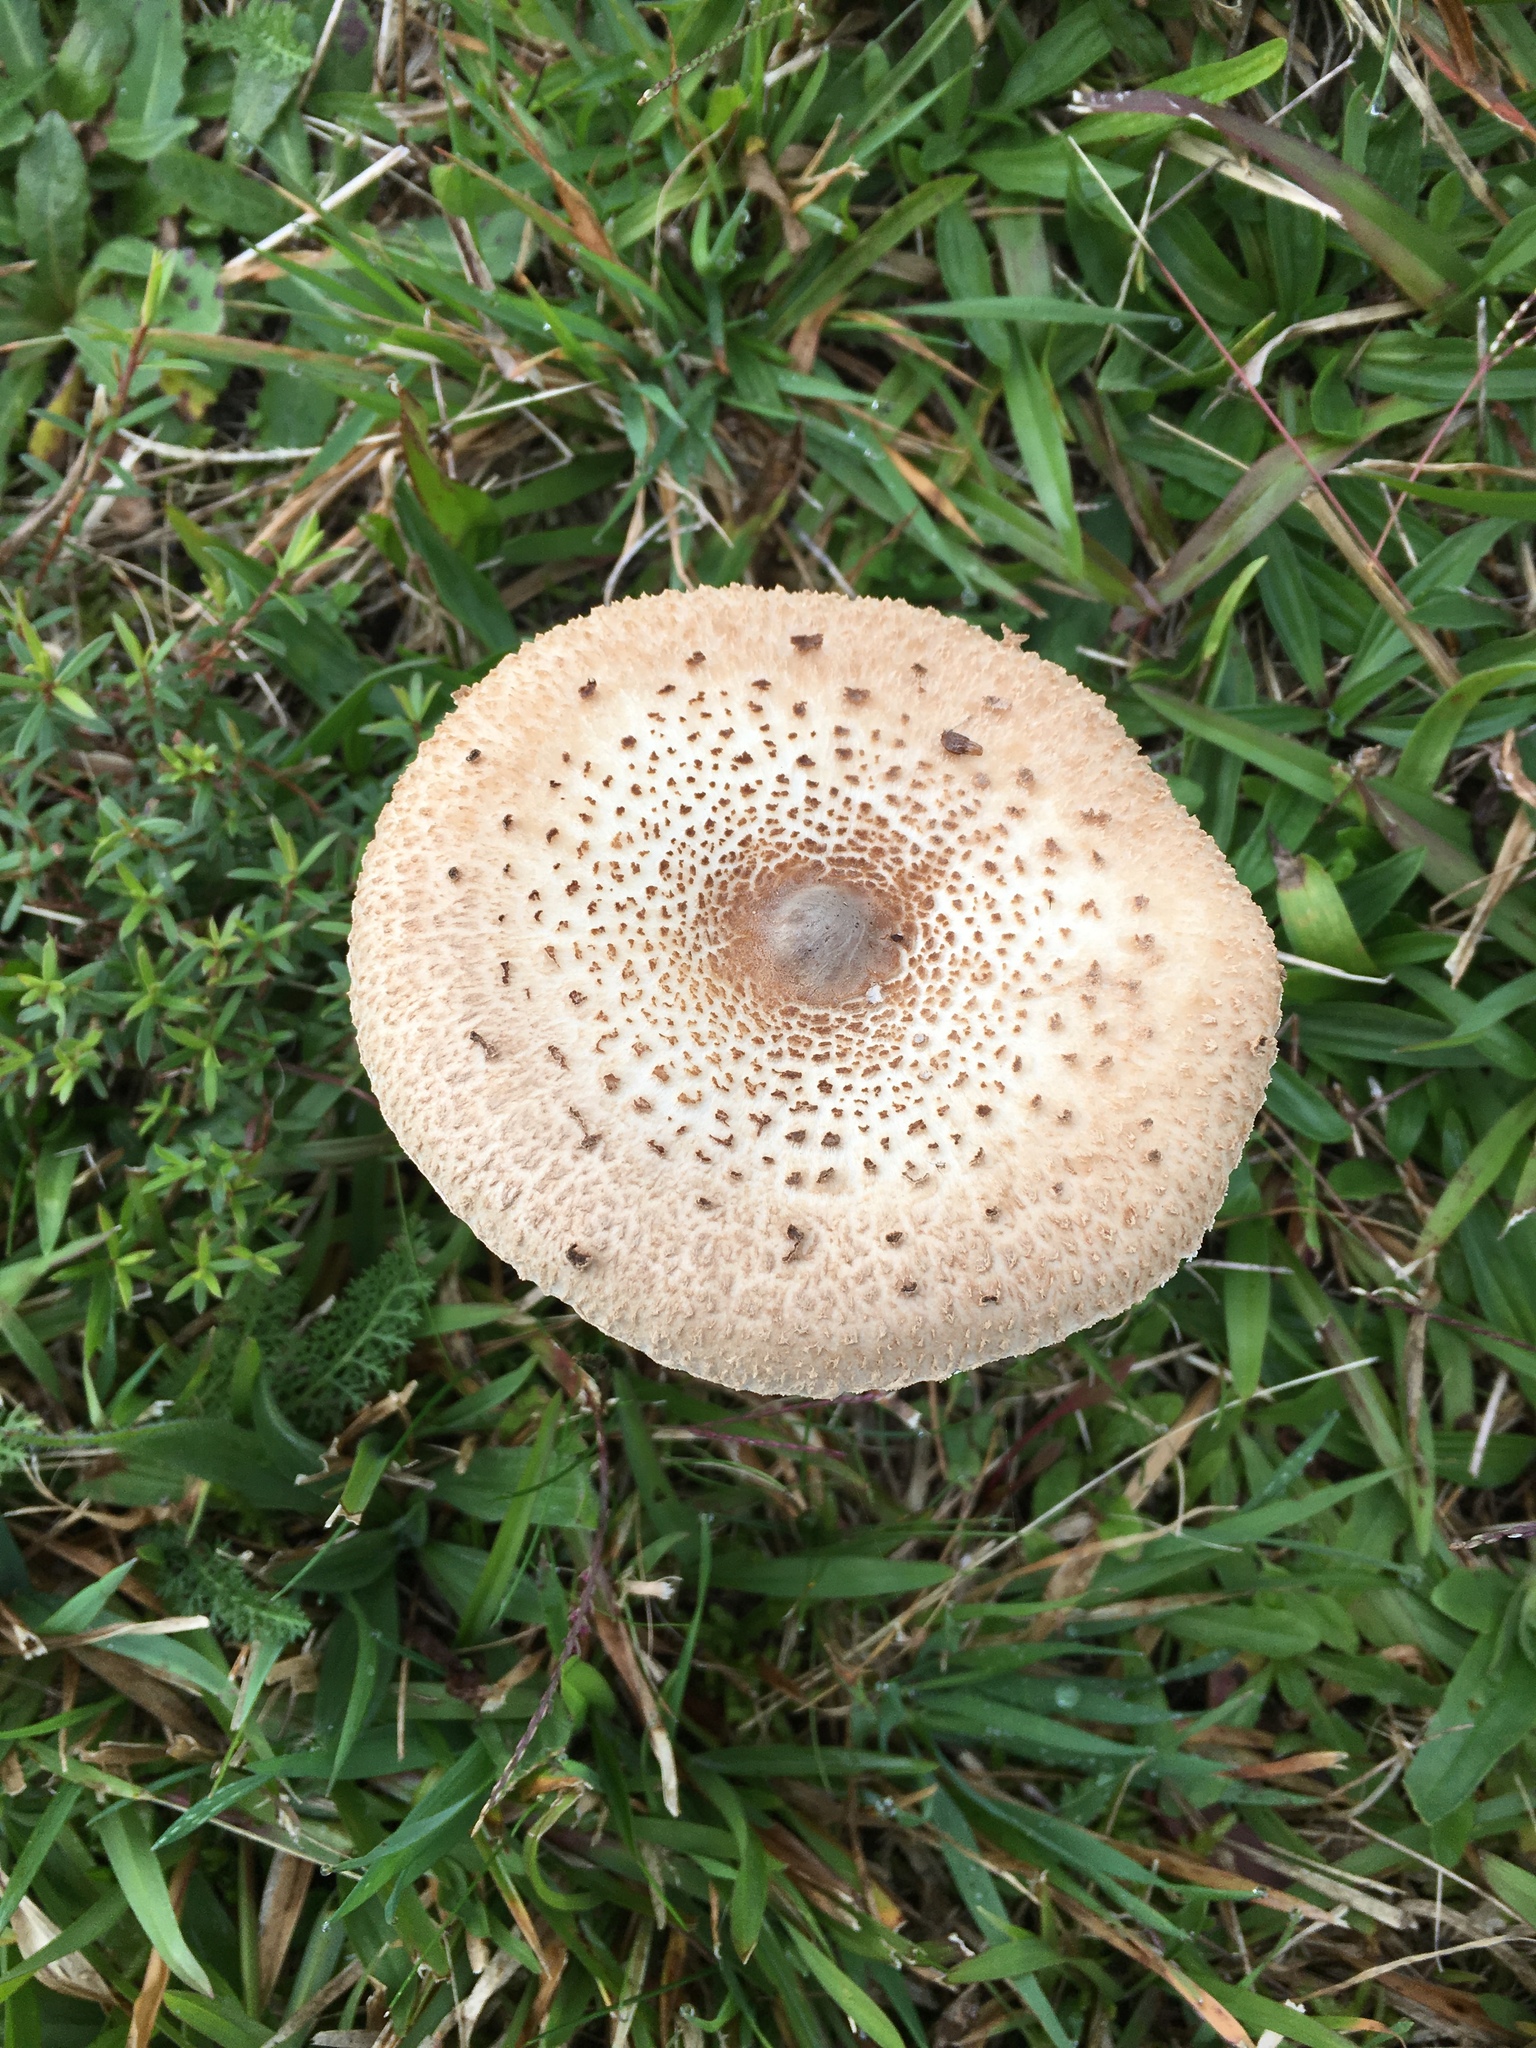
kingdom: Fungi
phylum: Basidiomycota
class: Agaricomycetes
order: Agaricales
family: Agaricaceae
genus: Macrolepiota
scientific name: Macrolepiota clelandii
